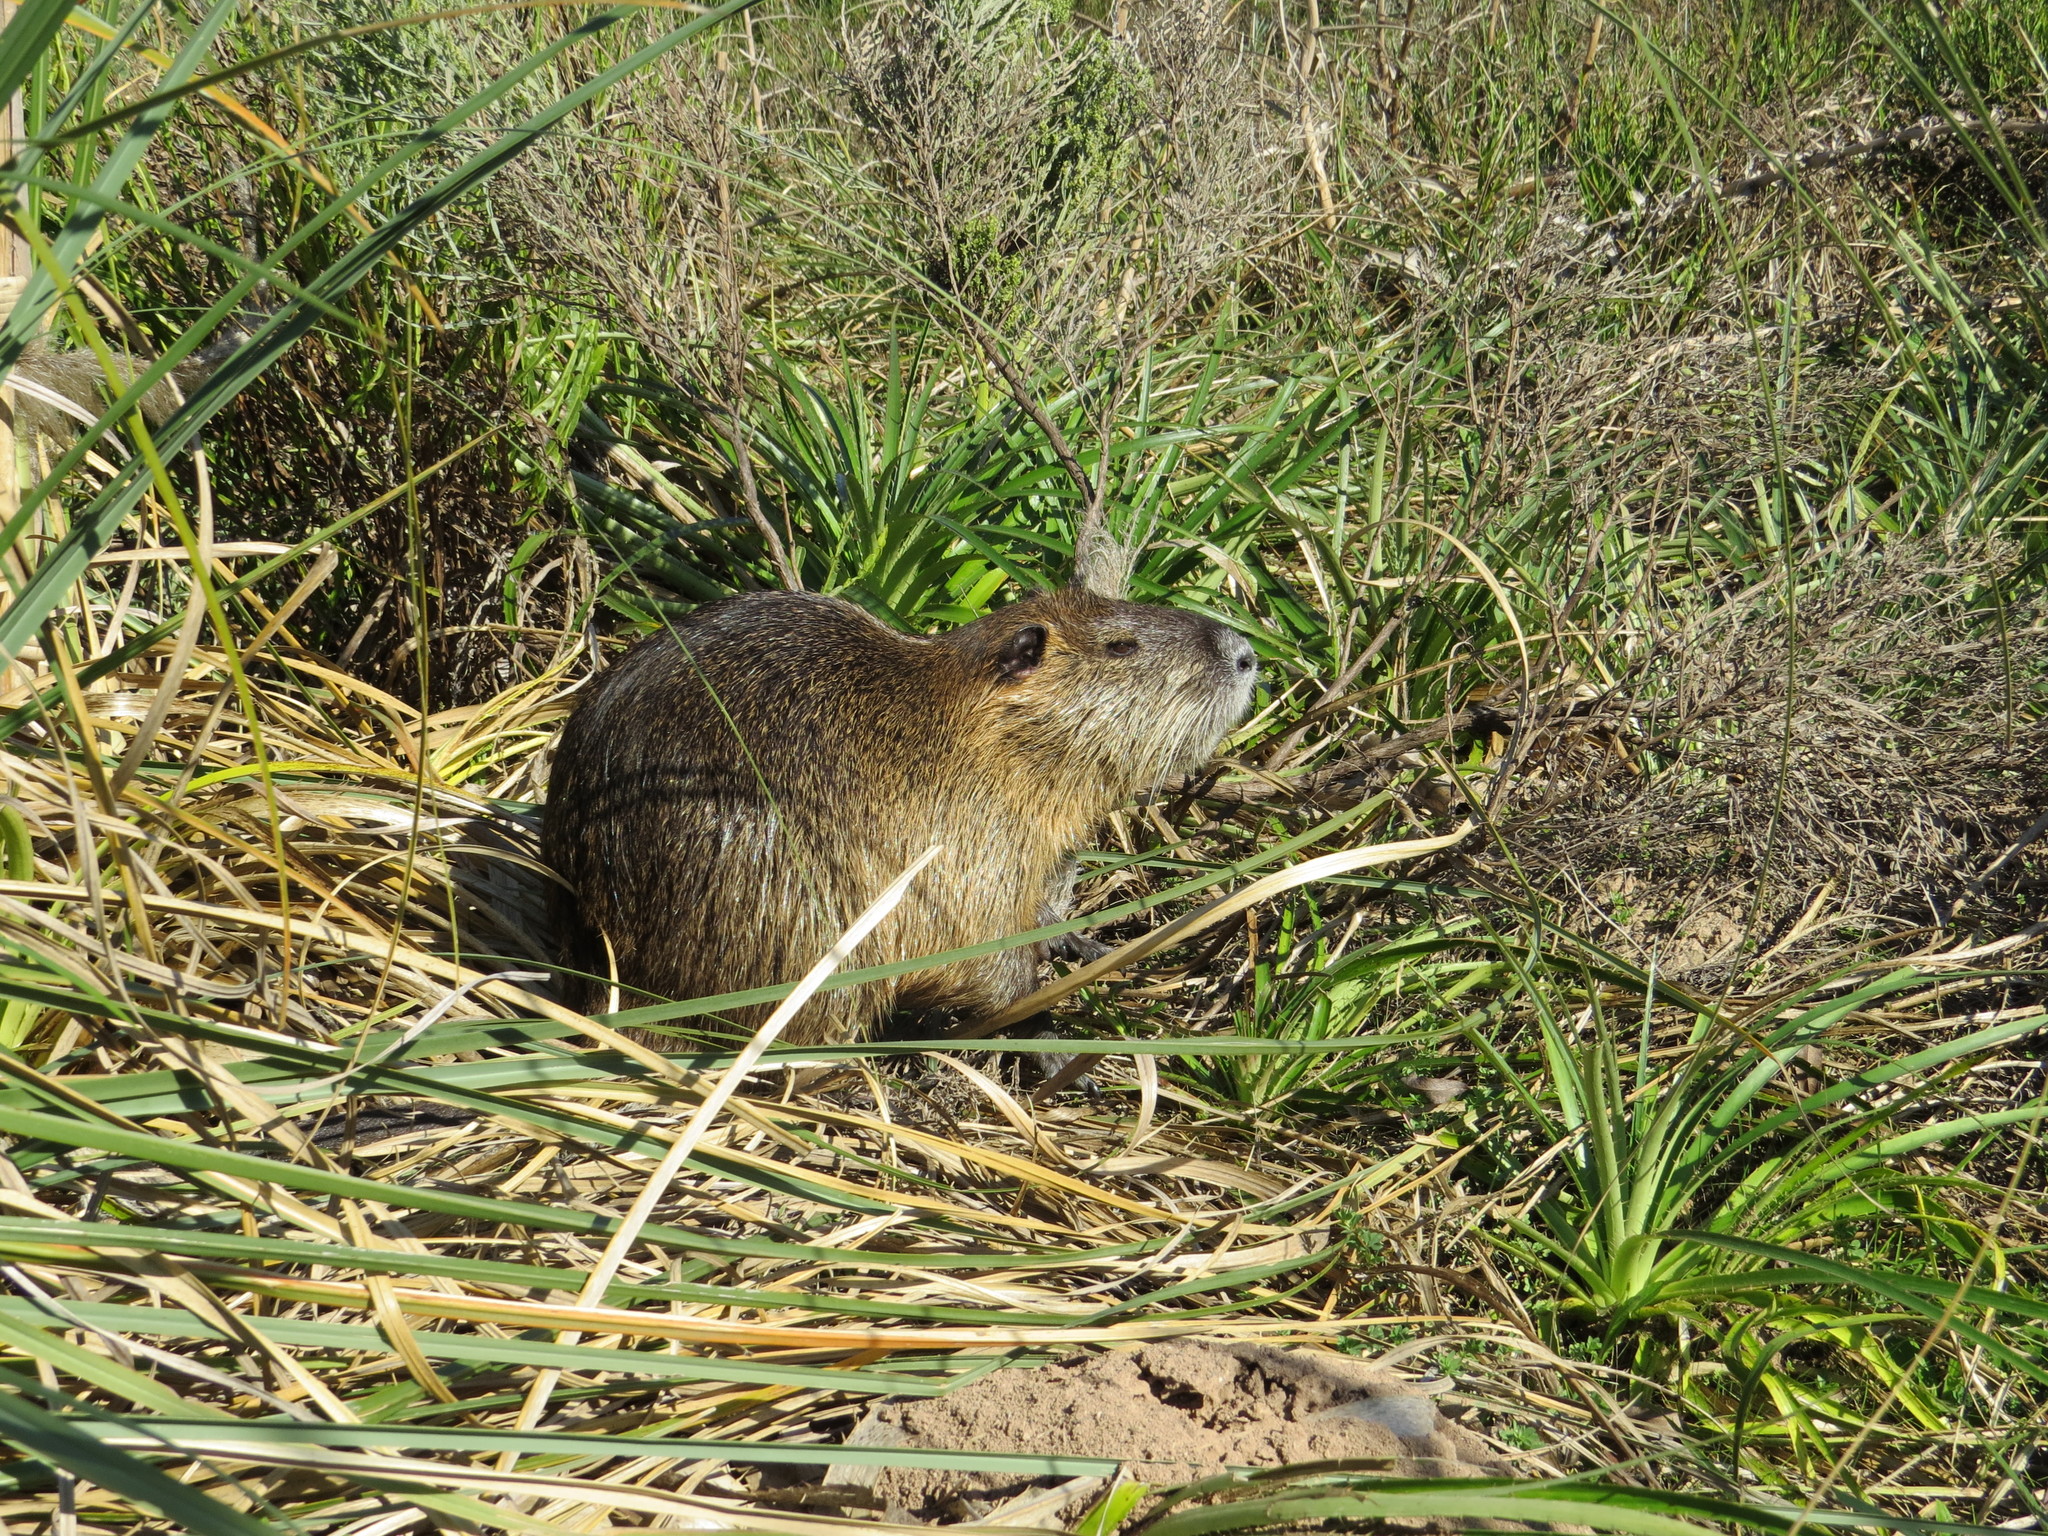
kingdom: Animalia
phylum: Chordata
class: Mammalia
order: Rodentia
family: Myocastoridae
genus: Myocastor
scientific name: Myocastor coypus
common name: Coypu
